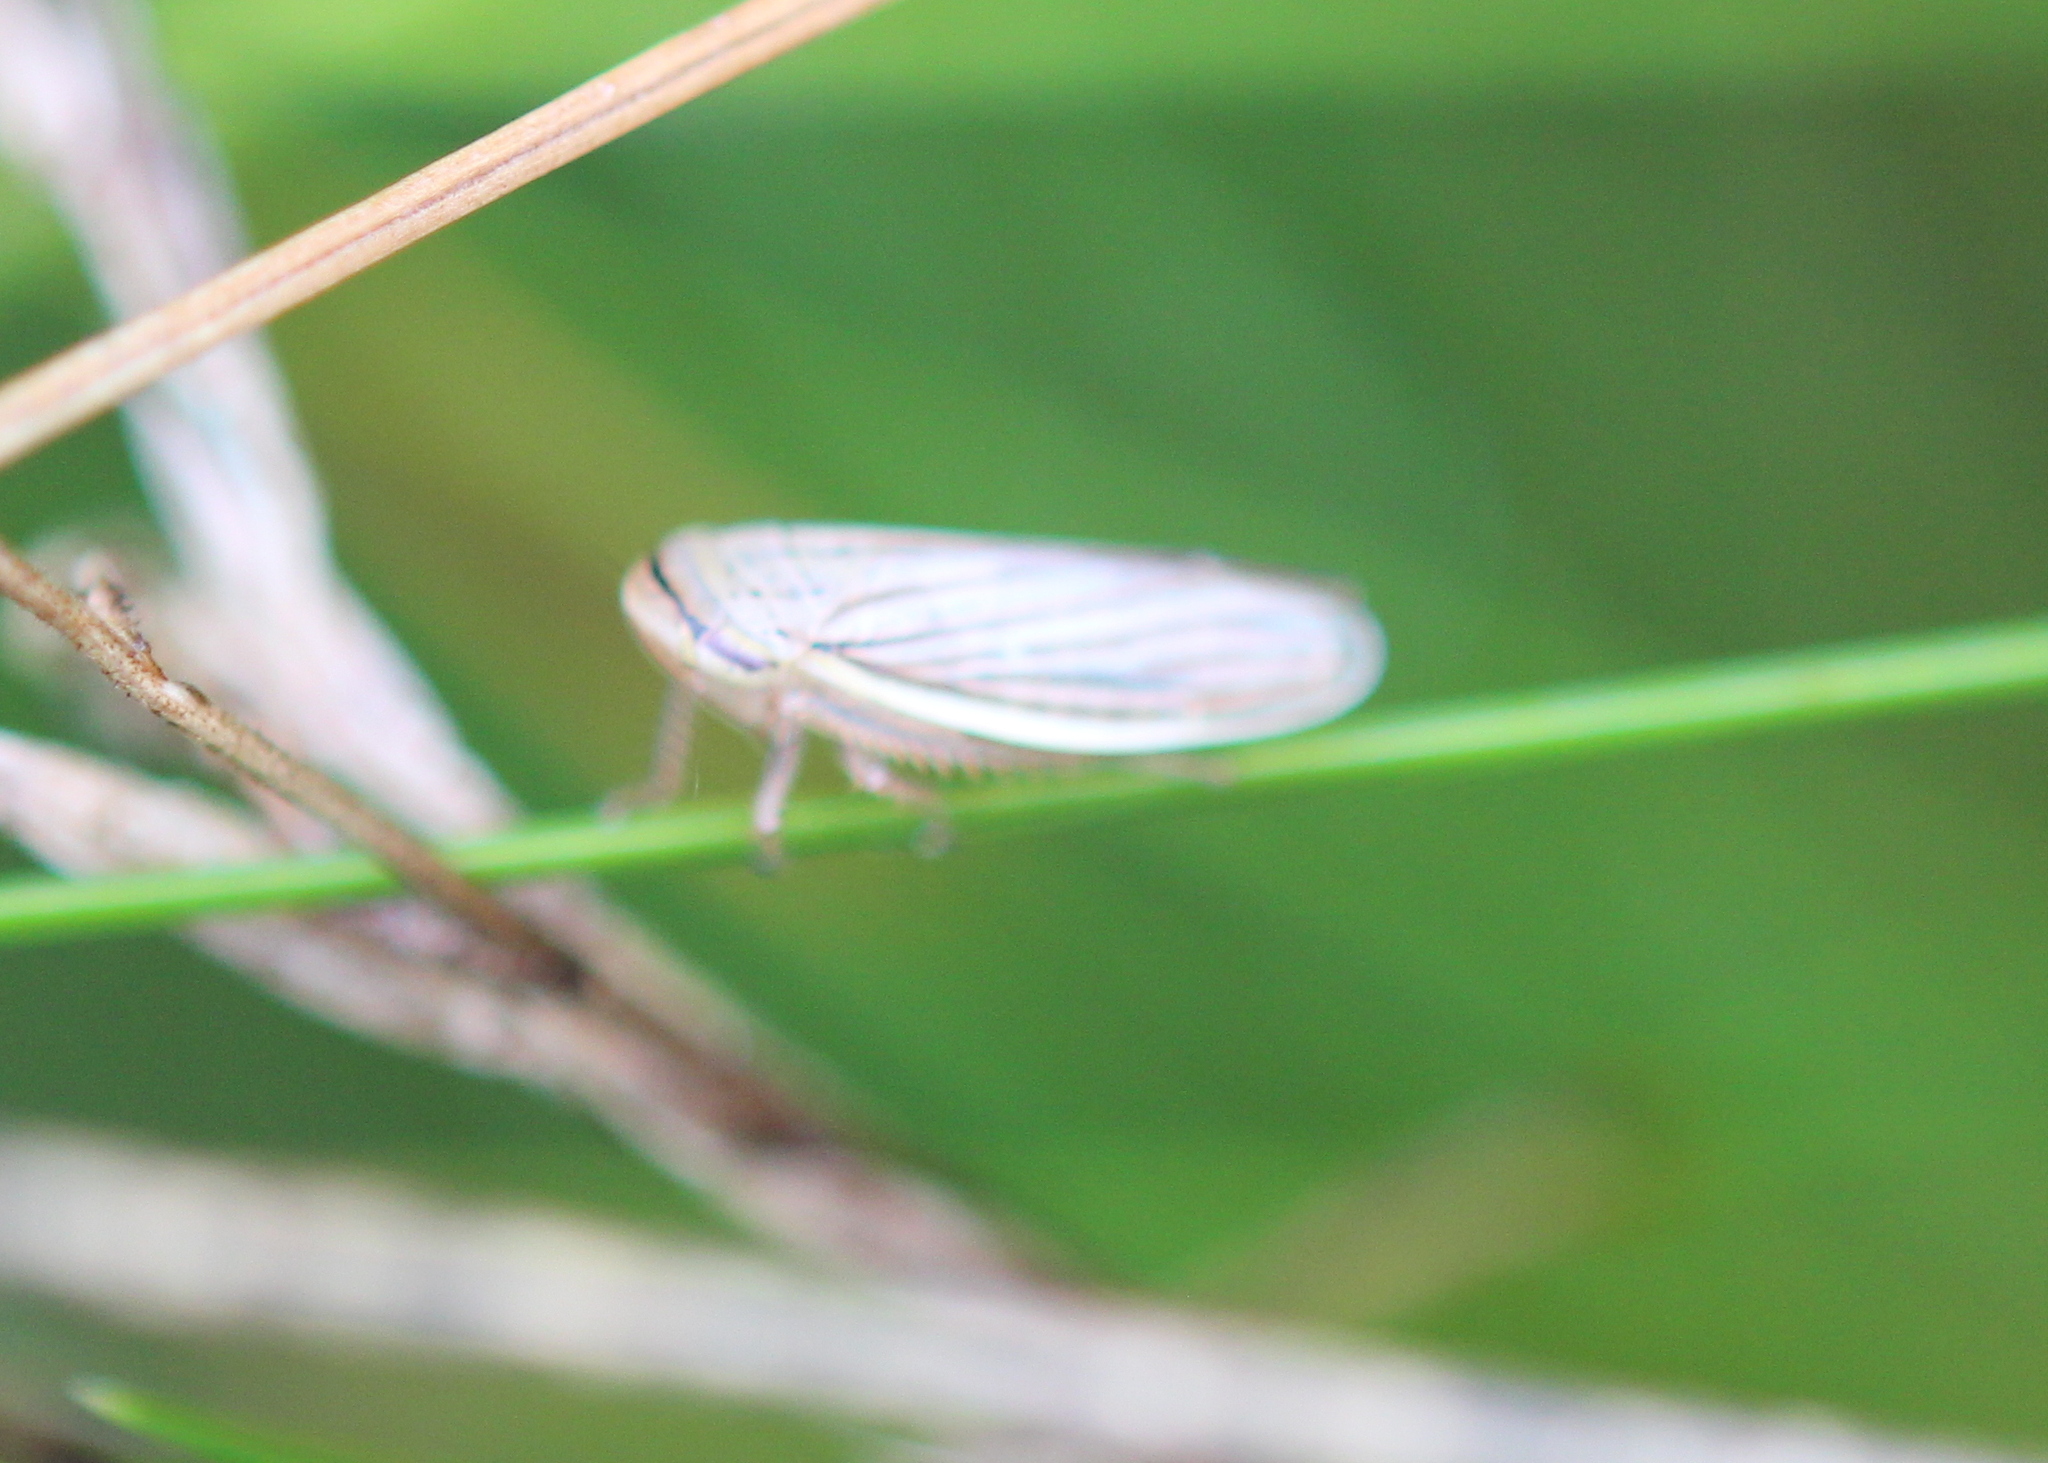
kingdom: Animalia
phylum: Arthropoda
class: Insecta
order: Hemiptera
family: Cicadellidae
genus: Athysanus
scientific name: Athysanus argentarius
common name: Silver leafhopper
